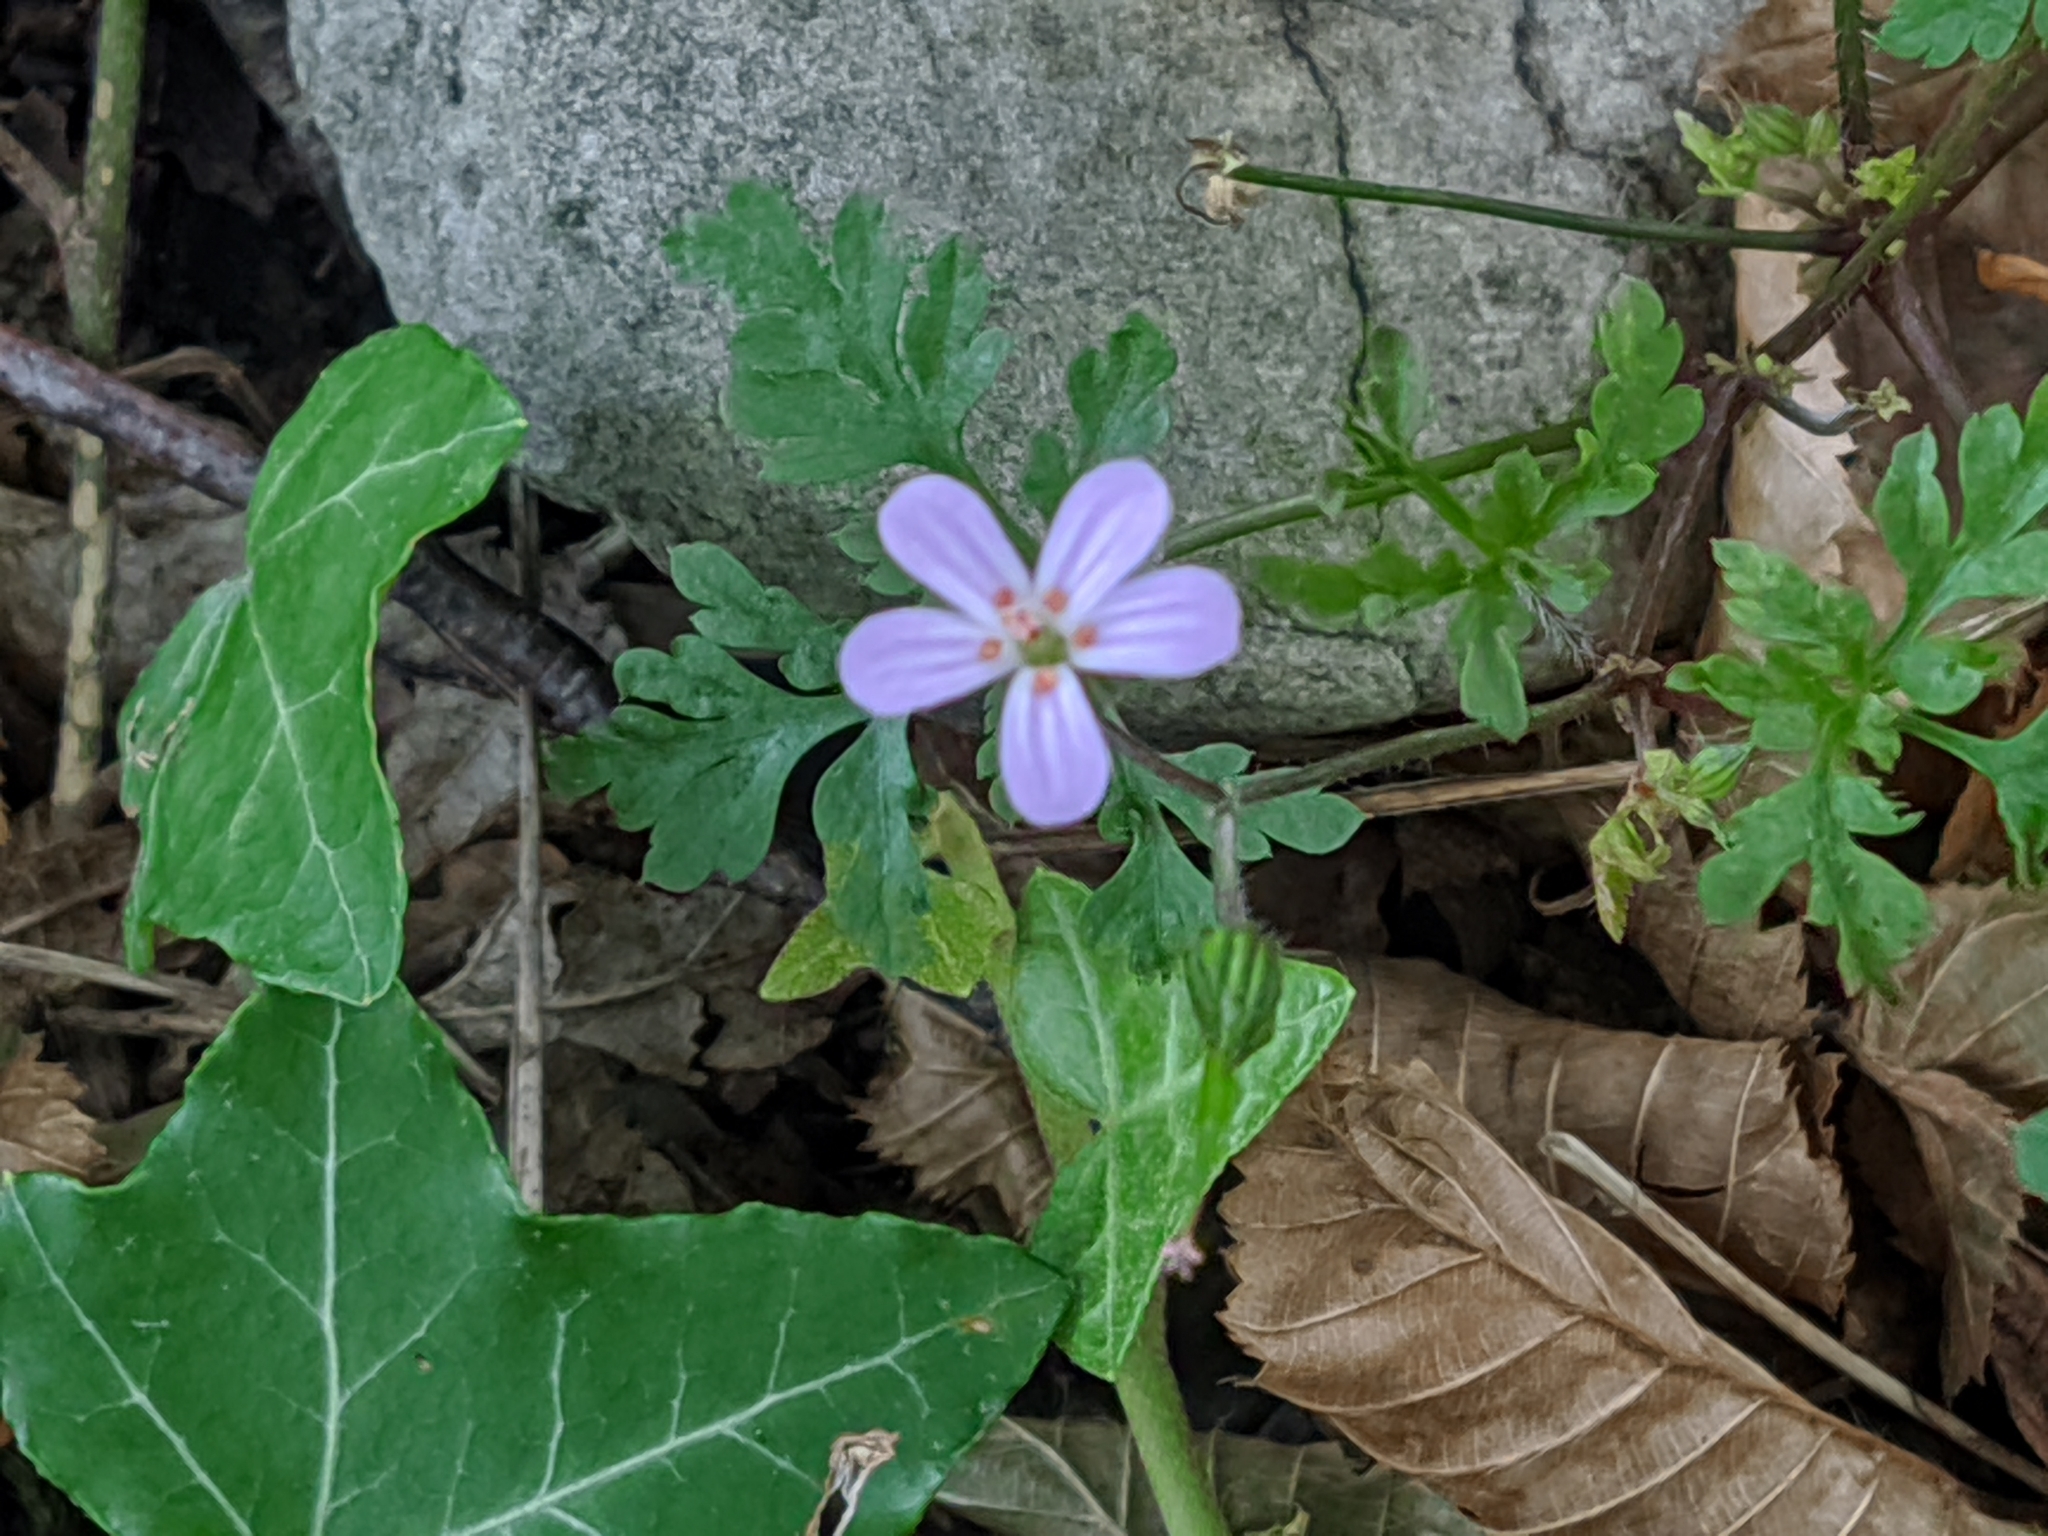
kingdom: Plantae
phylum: Tracheophyta
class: Magnoliopsida
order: Geraniales
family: Geraniaceae
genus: Geranium
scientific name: Geranium robertianum
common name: Herb-robert
